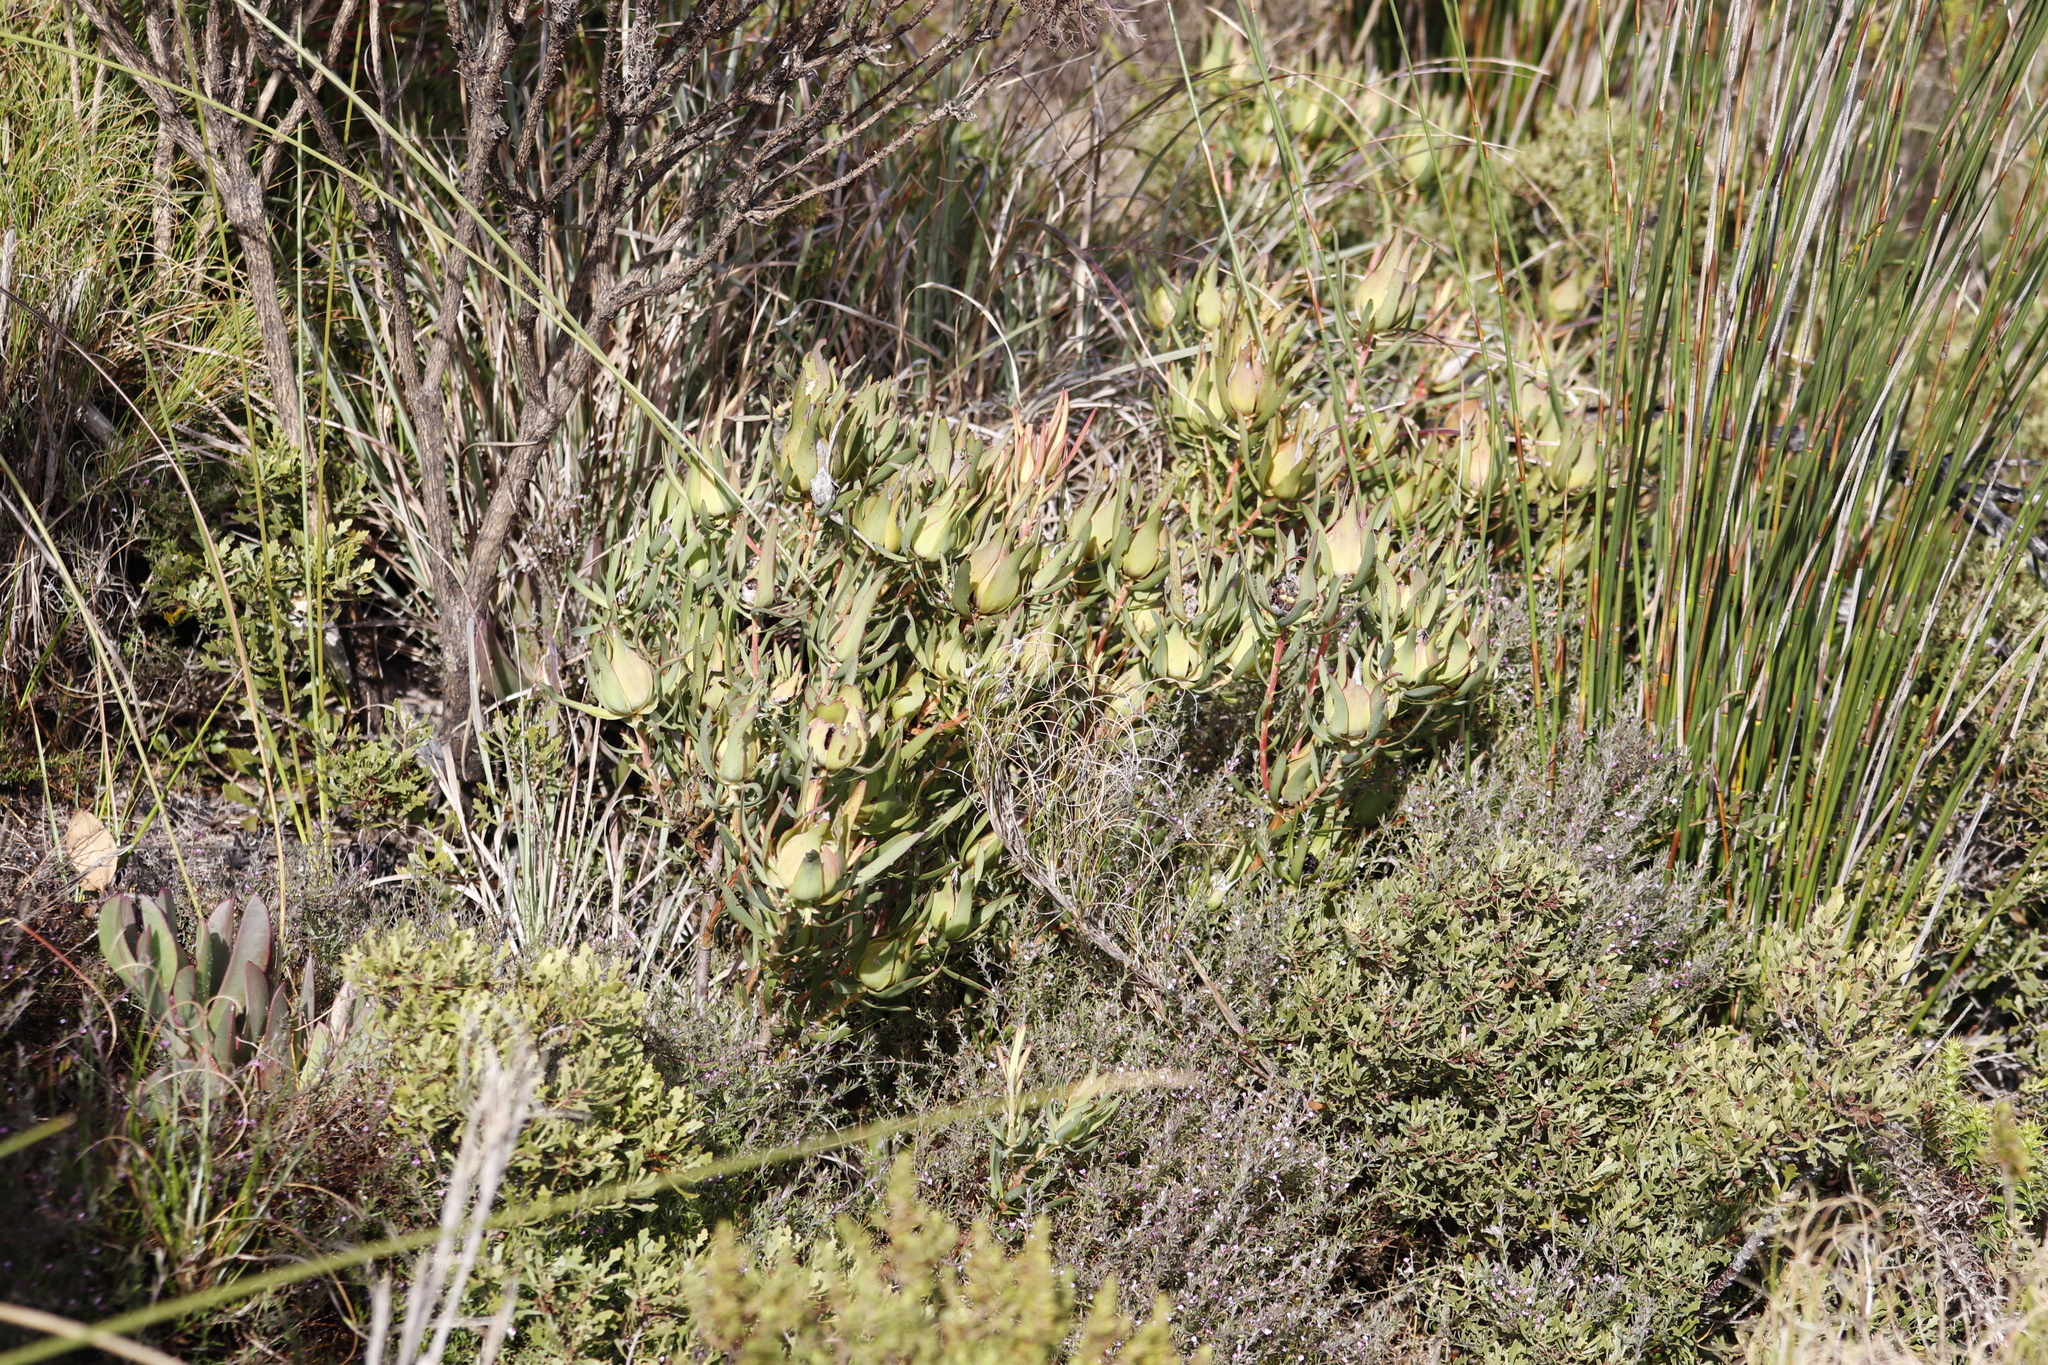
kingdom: Plantae
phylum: Tracheophyta
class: Magnoliopsida
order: Proteales
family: Proteaceae
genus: Leucadendron
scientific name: Leucadendron salignum
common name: Common sunshine conebush
